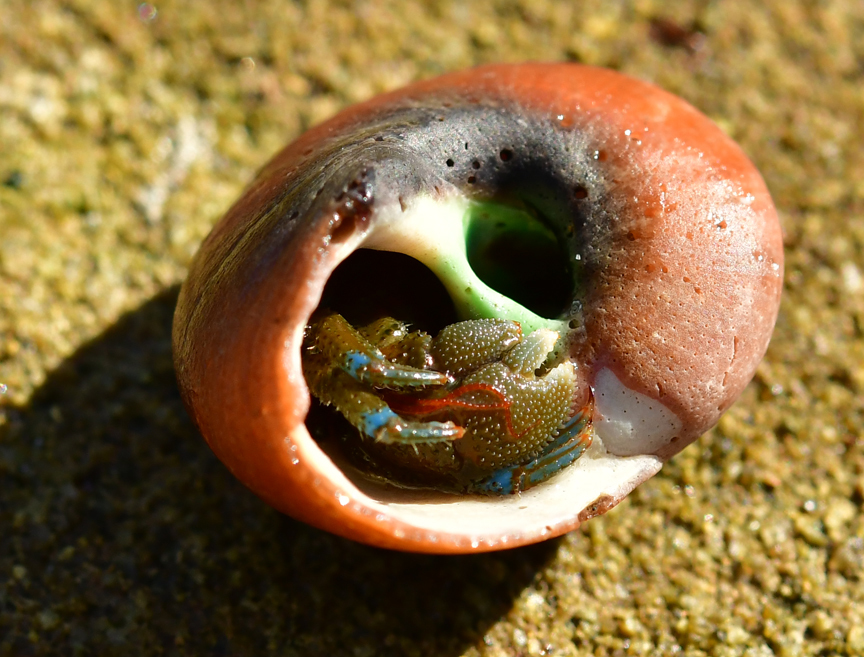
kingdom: Animalia
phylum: Arthropoda
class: Malacostraca
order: Decapoda
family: Paguridae
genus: Pagurus
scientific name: Pagurus samuelis
